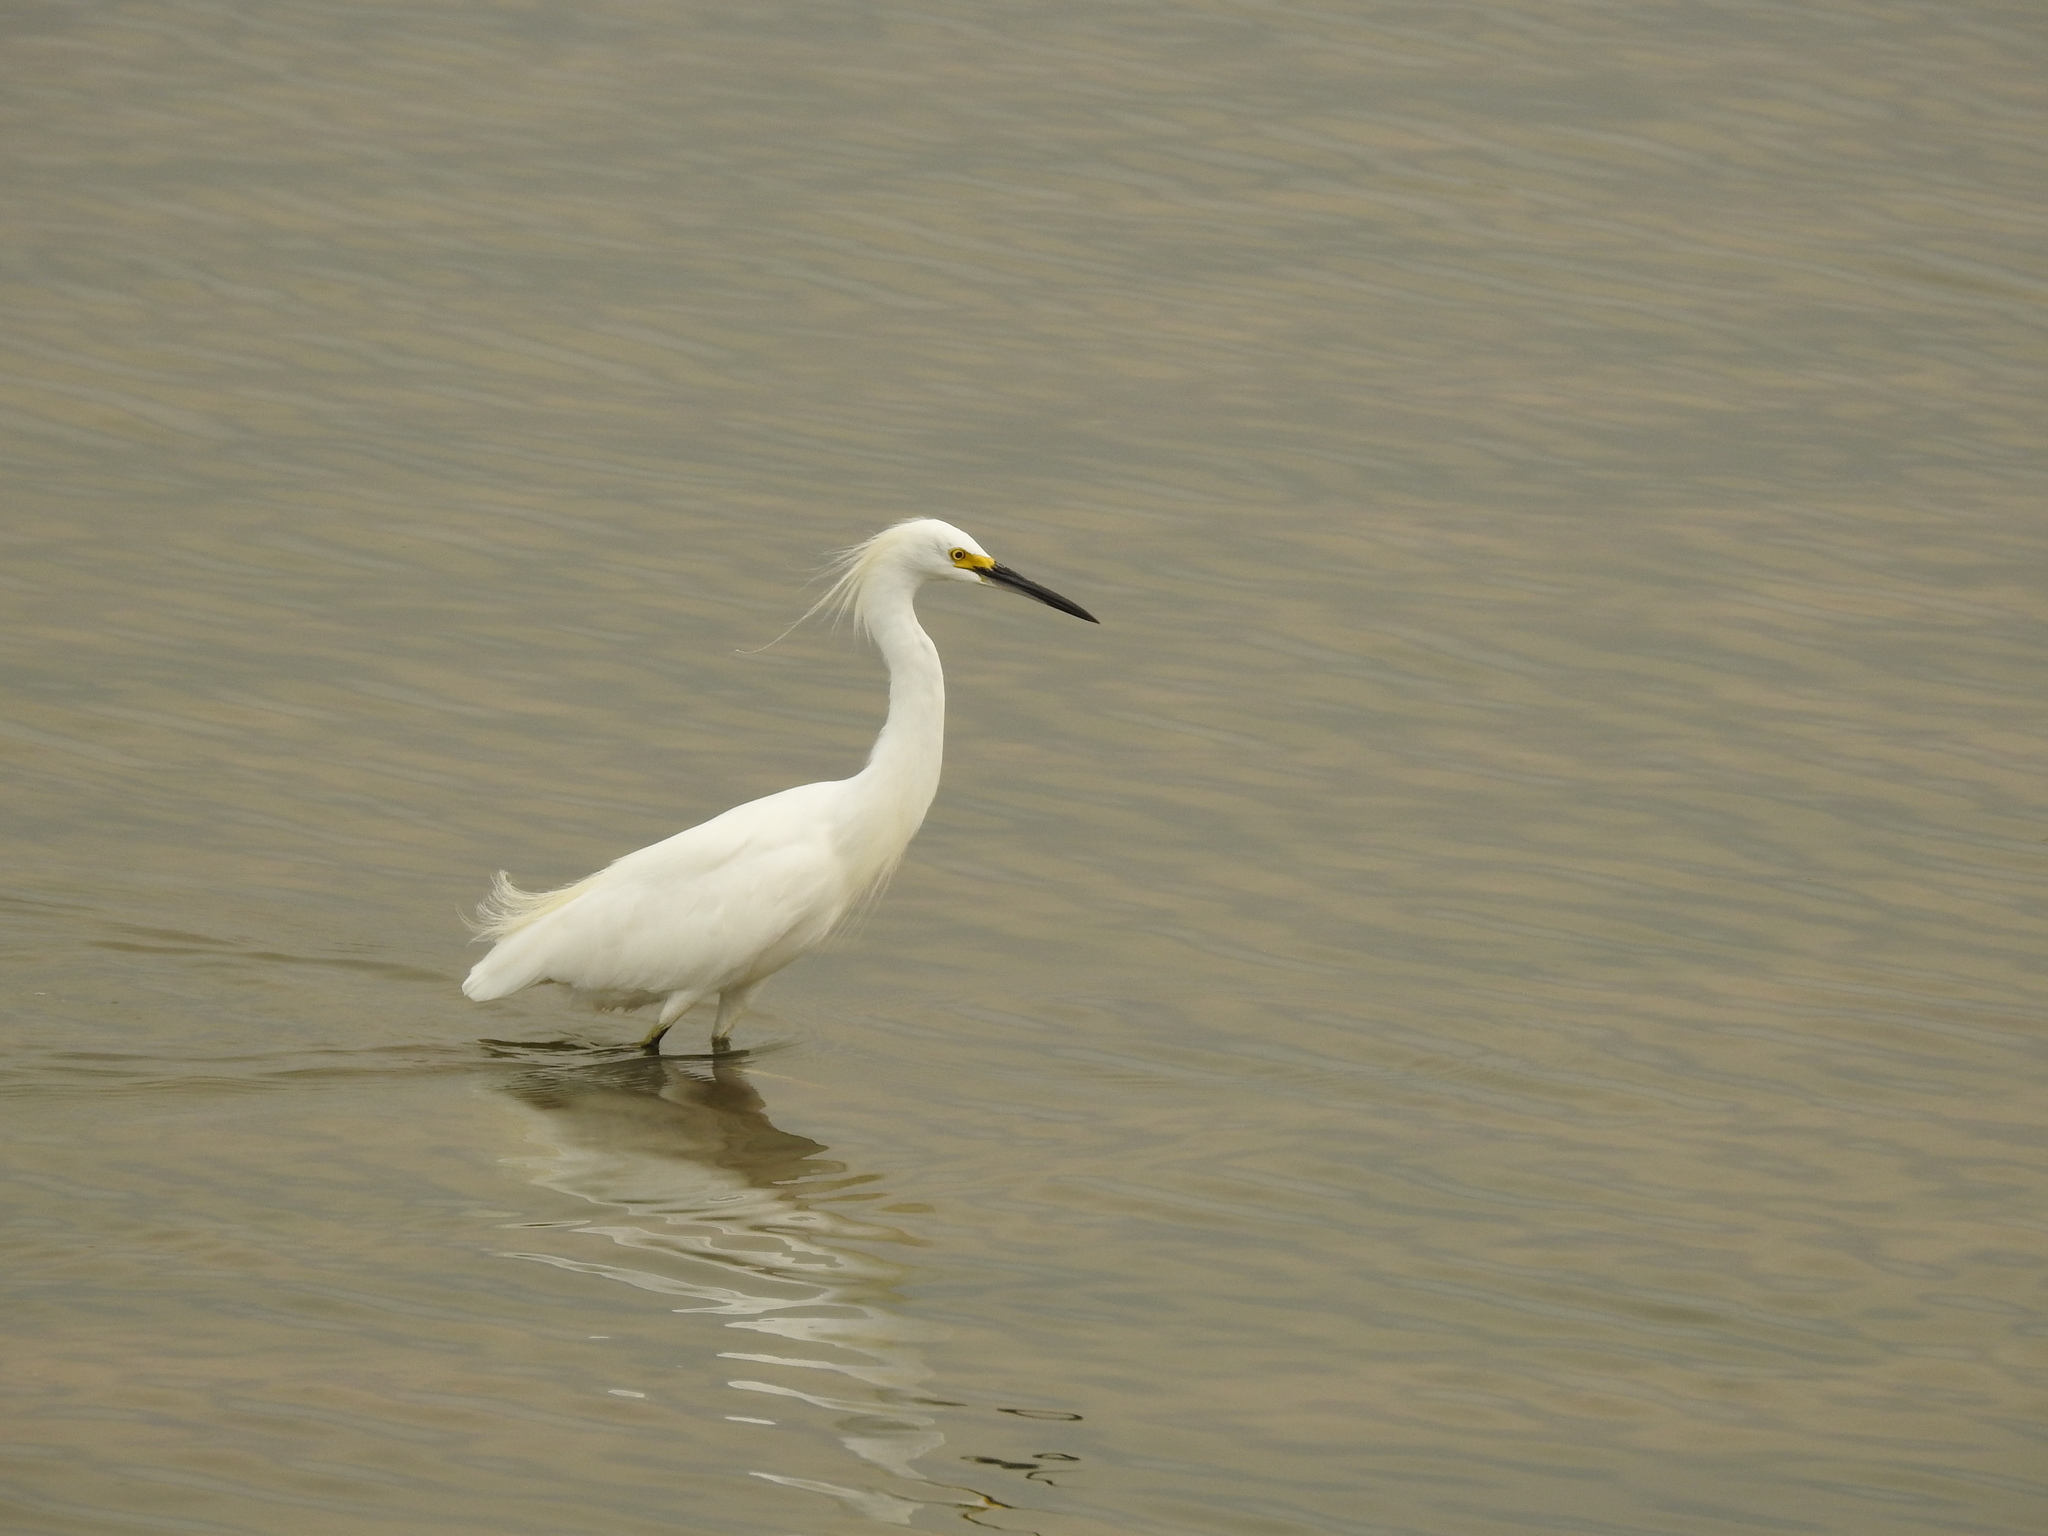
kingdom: Animalia
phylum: Chordata
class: Aves
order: Pelecaniformes
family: Ardeidae
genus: Egretta
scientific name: Egretta thula
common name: Snowy egret
